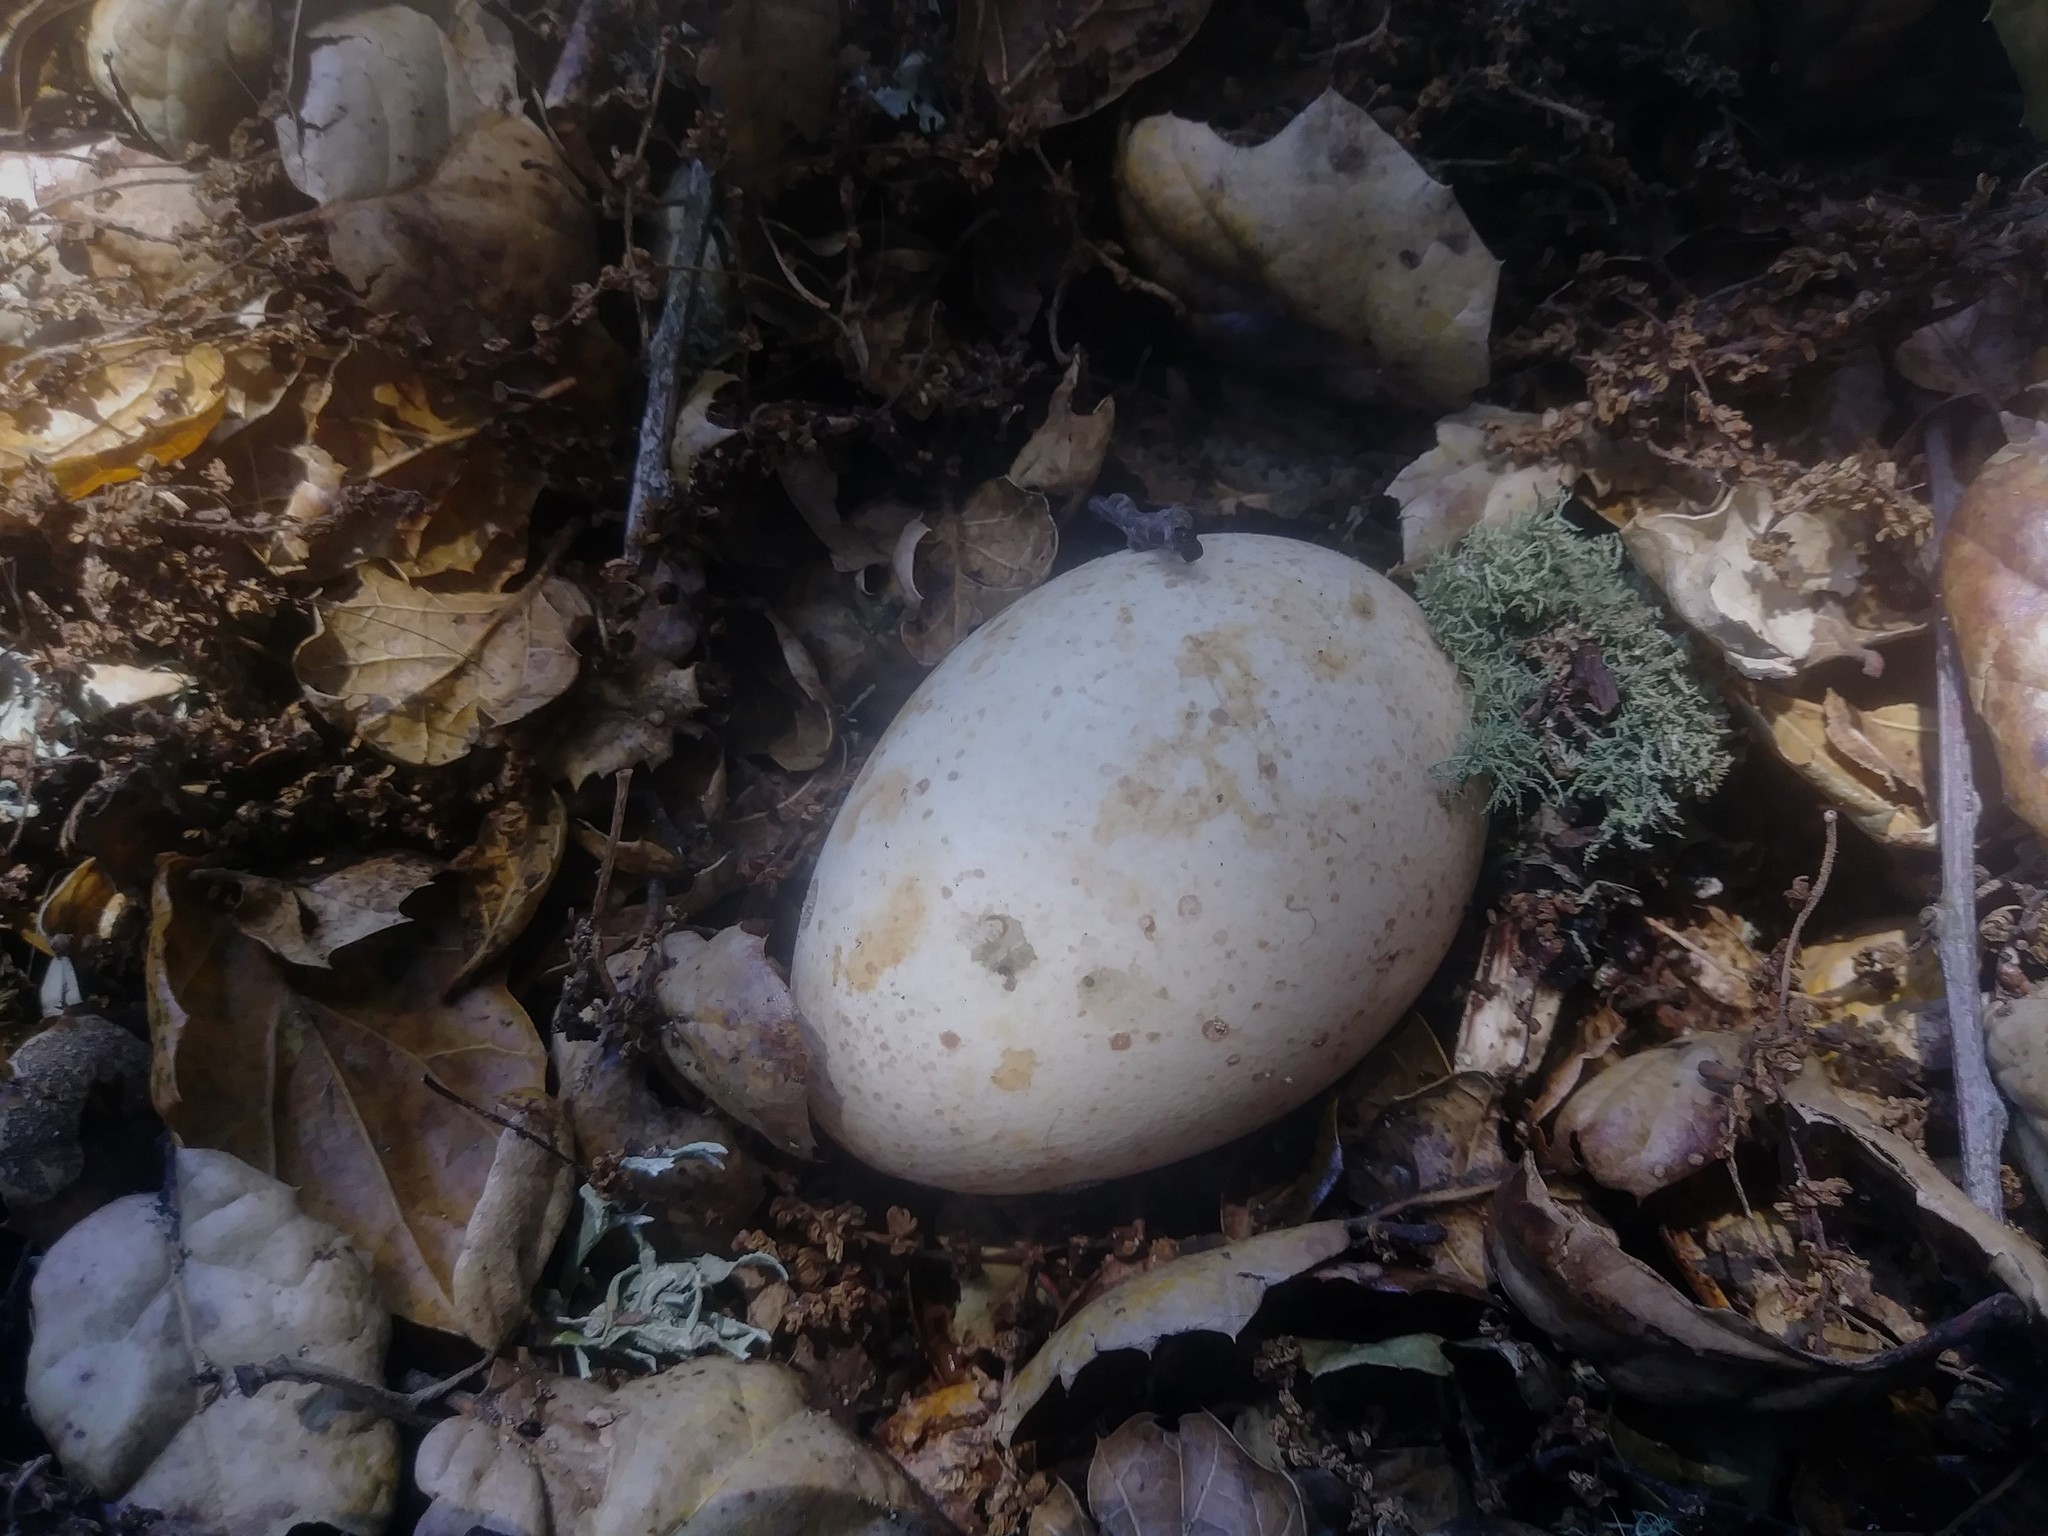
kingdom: Animalia
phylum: Chordata
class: Aves
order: Galliformes
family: Phasianidae
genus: Meleagris
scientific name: Meleagris gallopavo
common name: Wild turkey
